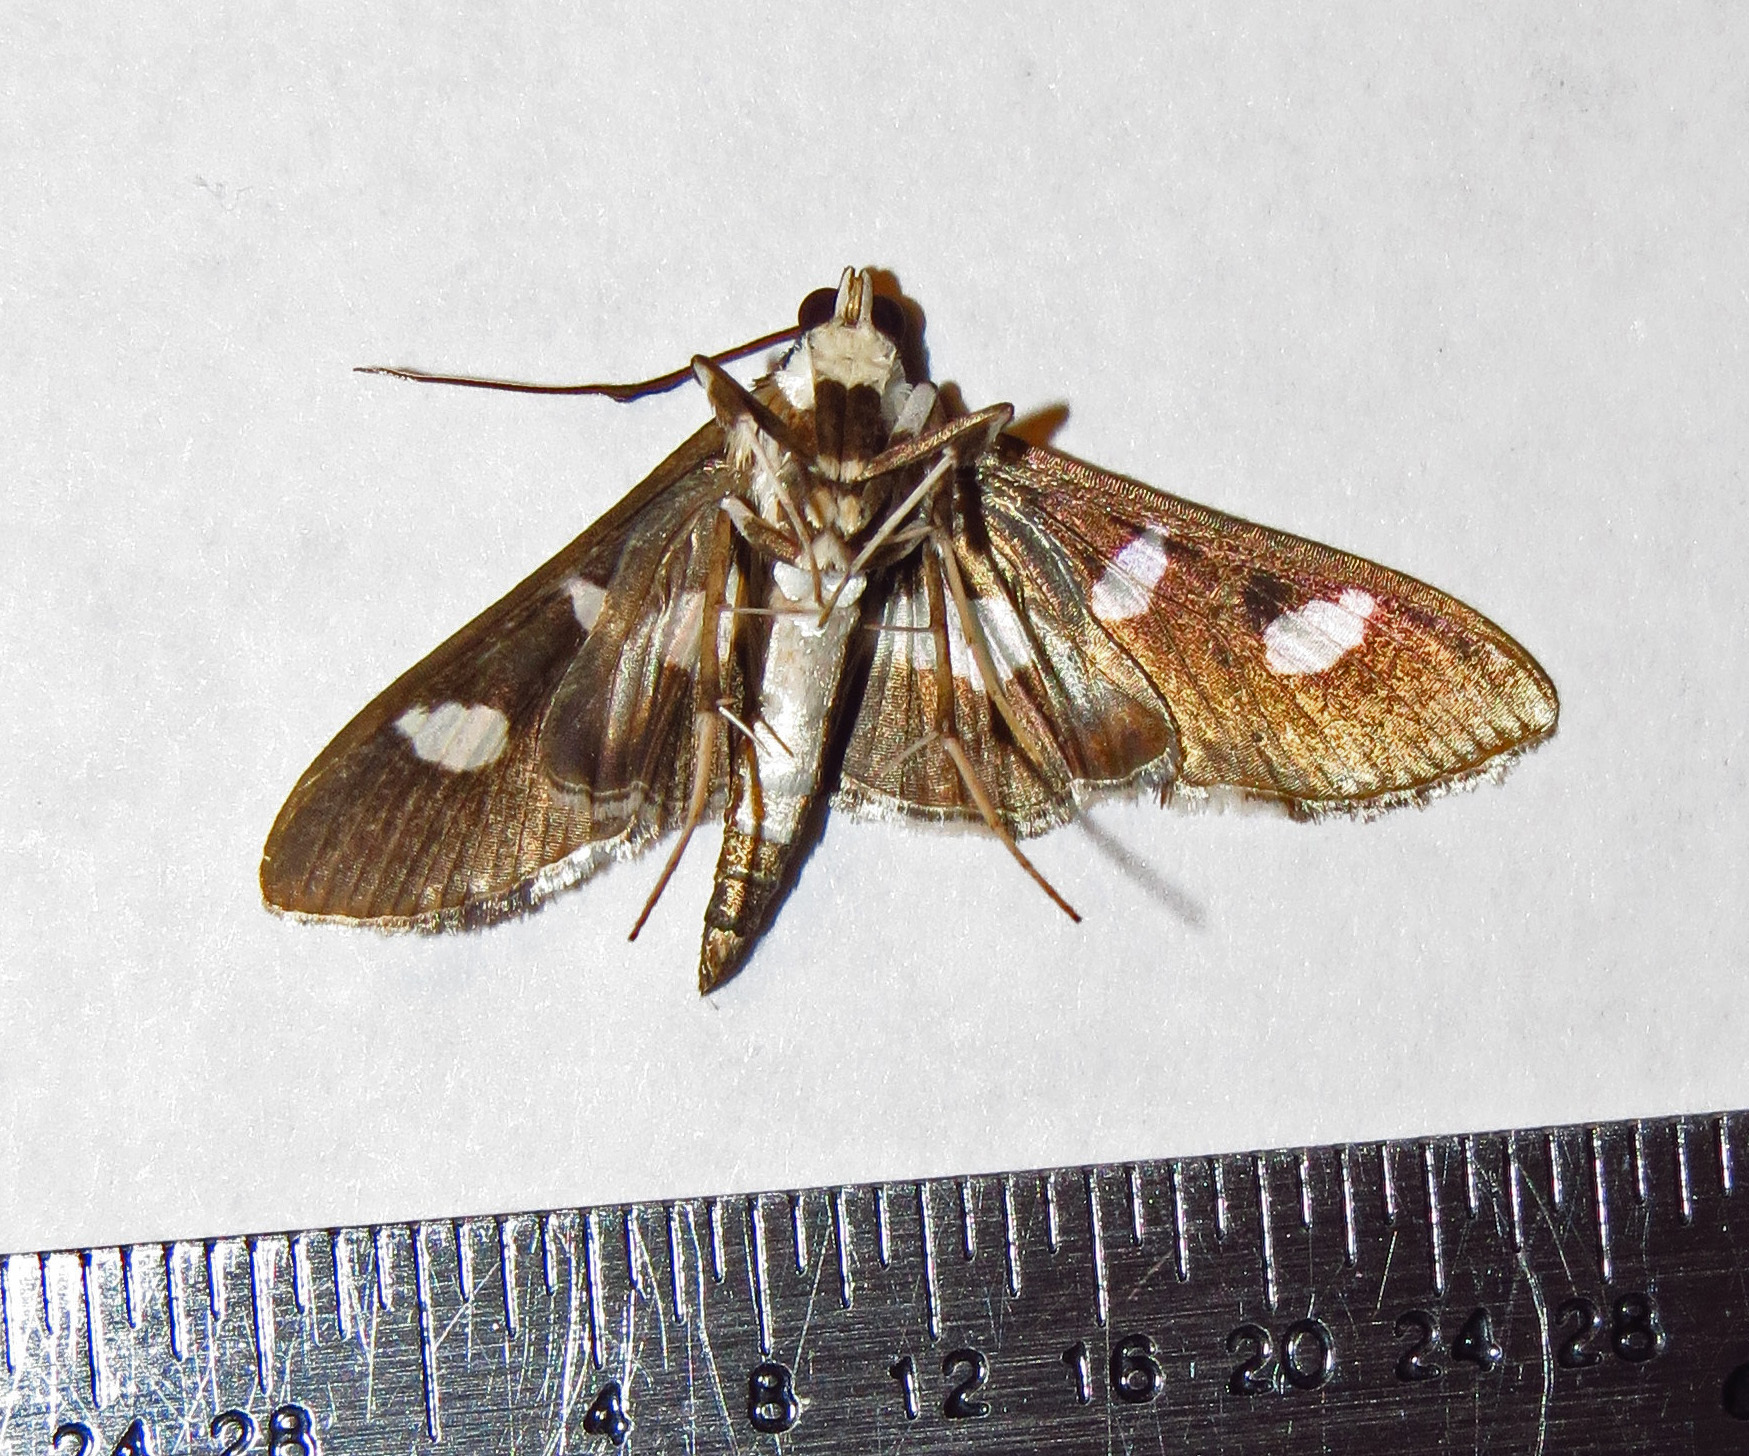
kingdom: Animalia
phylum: Arthropoda
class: Insecta
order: Lepidoptera
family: Crambidae
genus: Desmia
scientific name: Desmia funeralis
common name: Grape leaf folder moth
